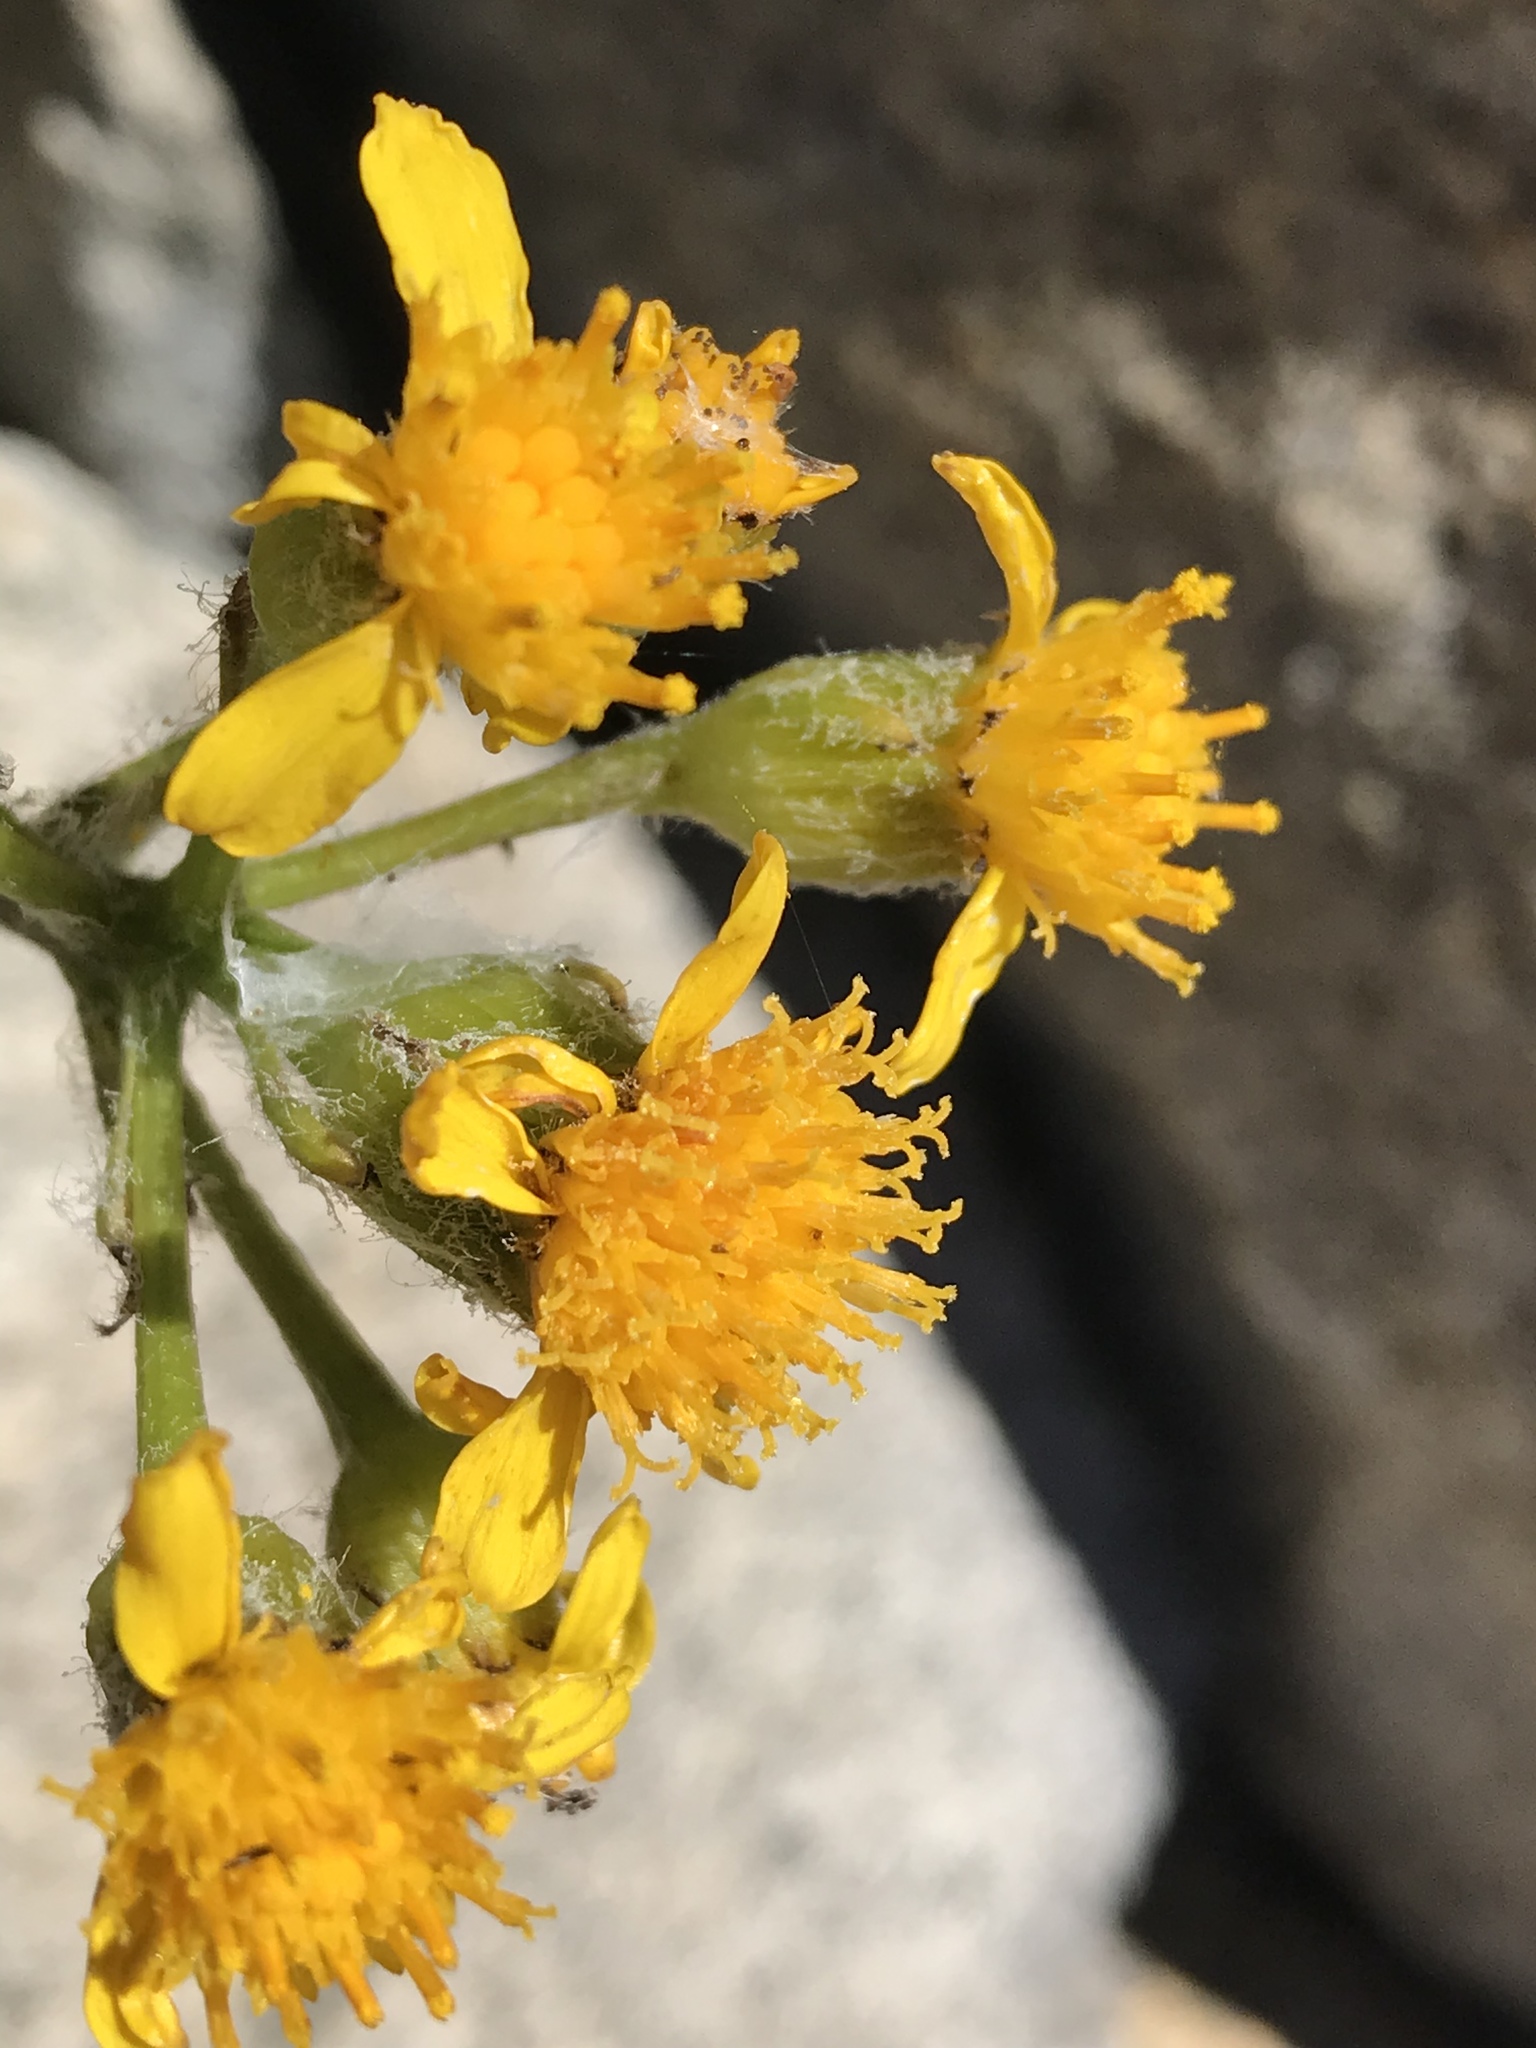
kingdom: Plantae
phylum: Tracheophyta
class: Magnoliopsida
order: Asterales
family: Asteraceae
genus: Senecio
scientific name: Senecio integerrimus
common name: Gaugeplant
